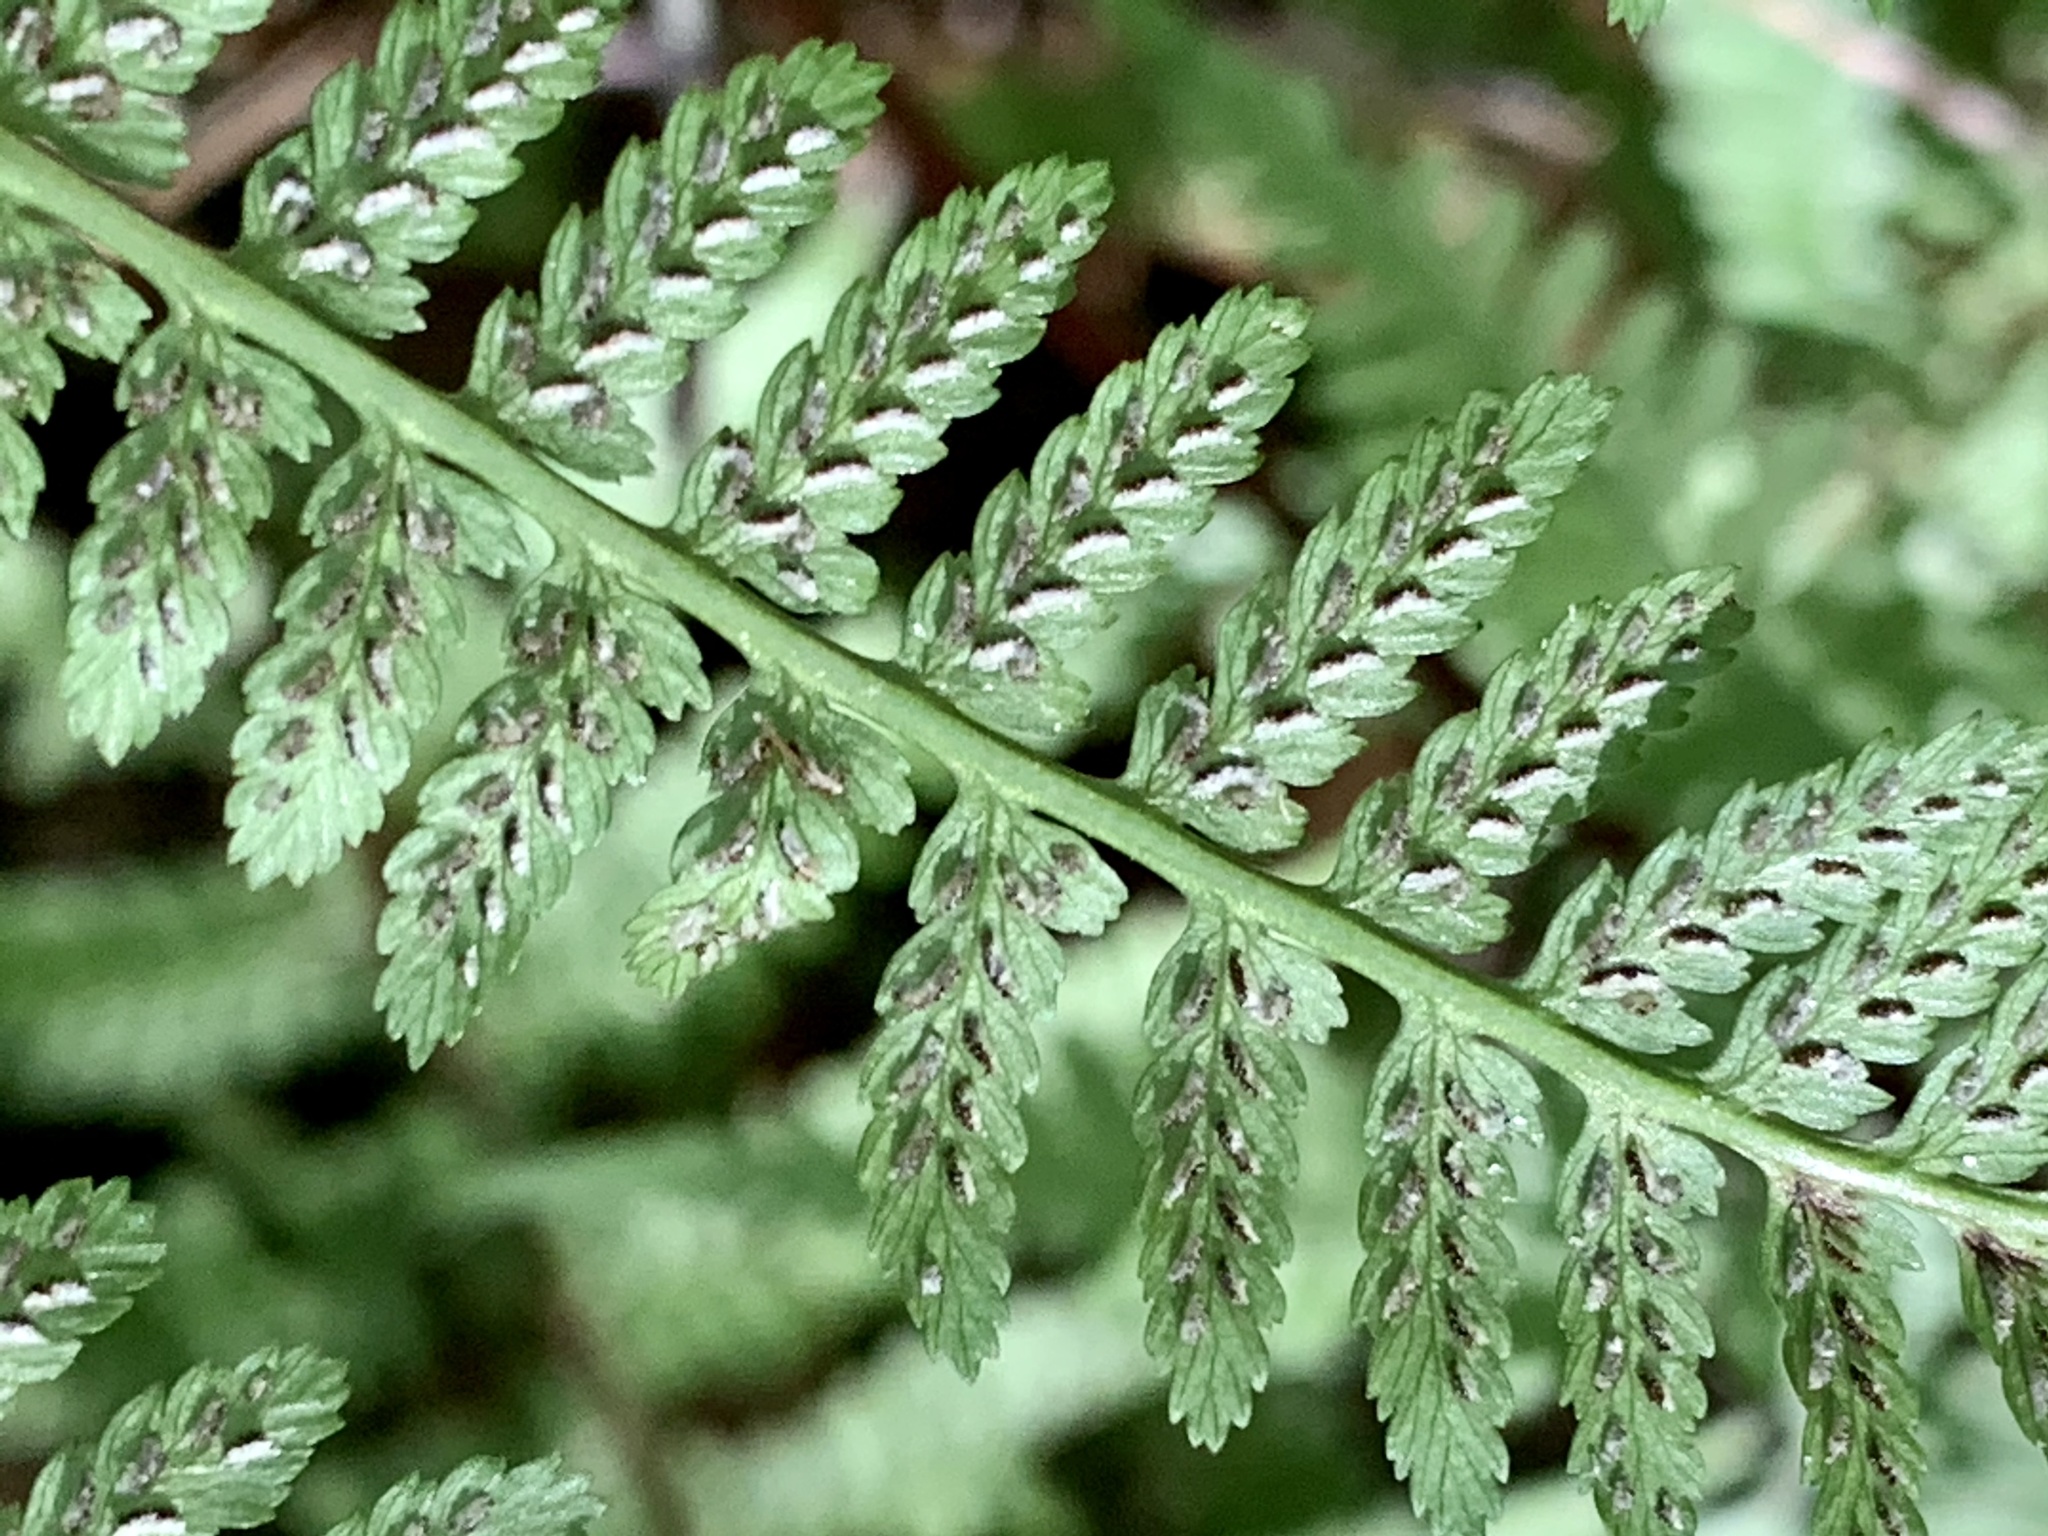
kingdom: Plantae
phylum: Tracheophyta
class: Polypodiopsida
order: Polypodiales
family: Athyriaceae
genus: Athyrium
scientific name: Athyrium asplenioides
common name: Southern lady fern
